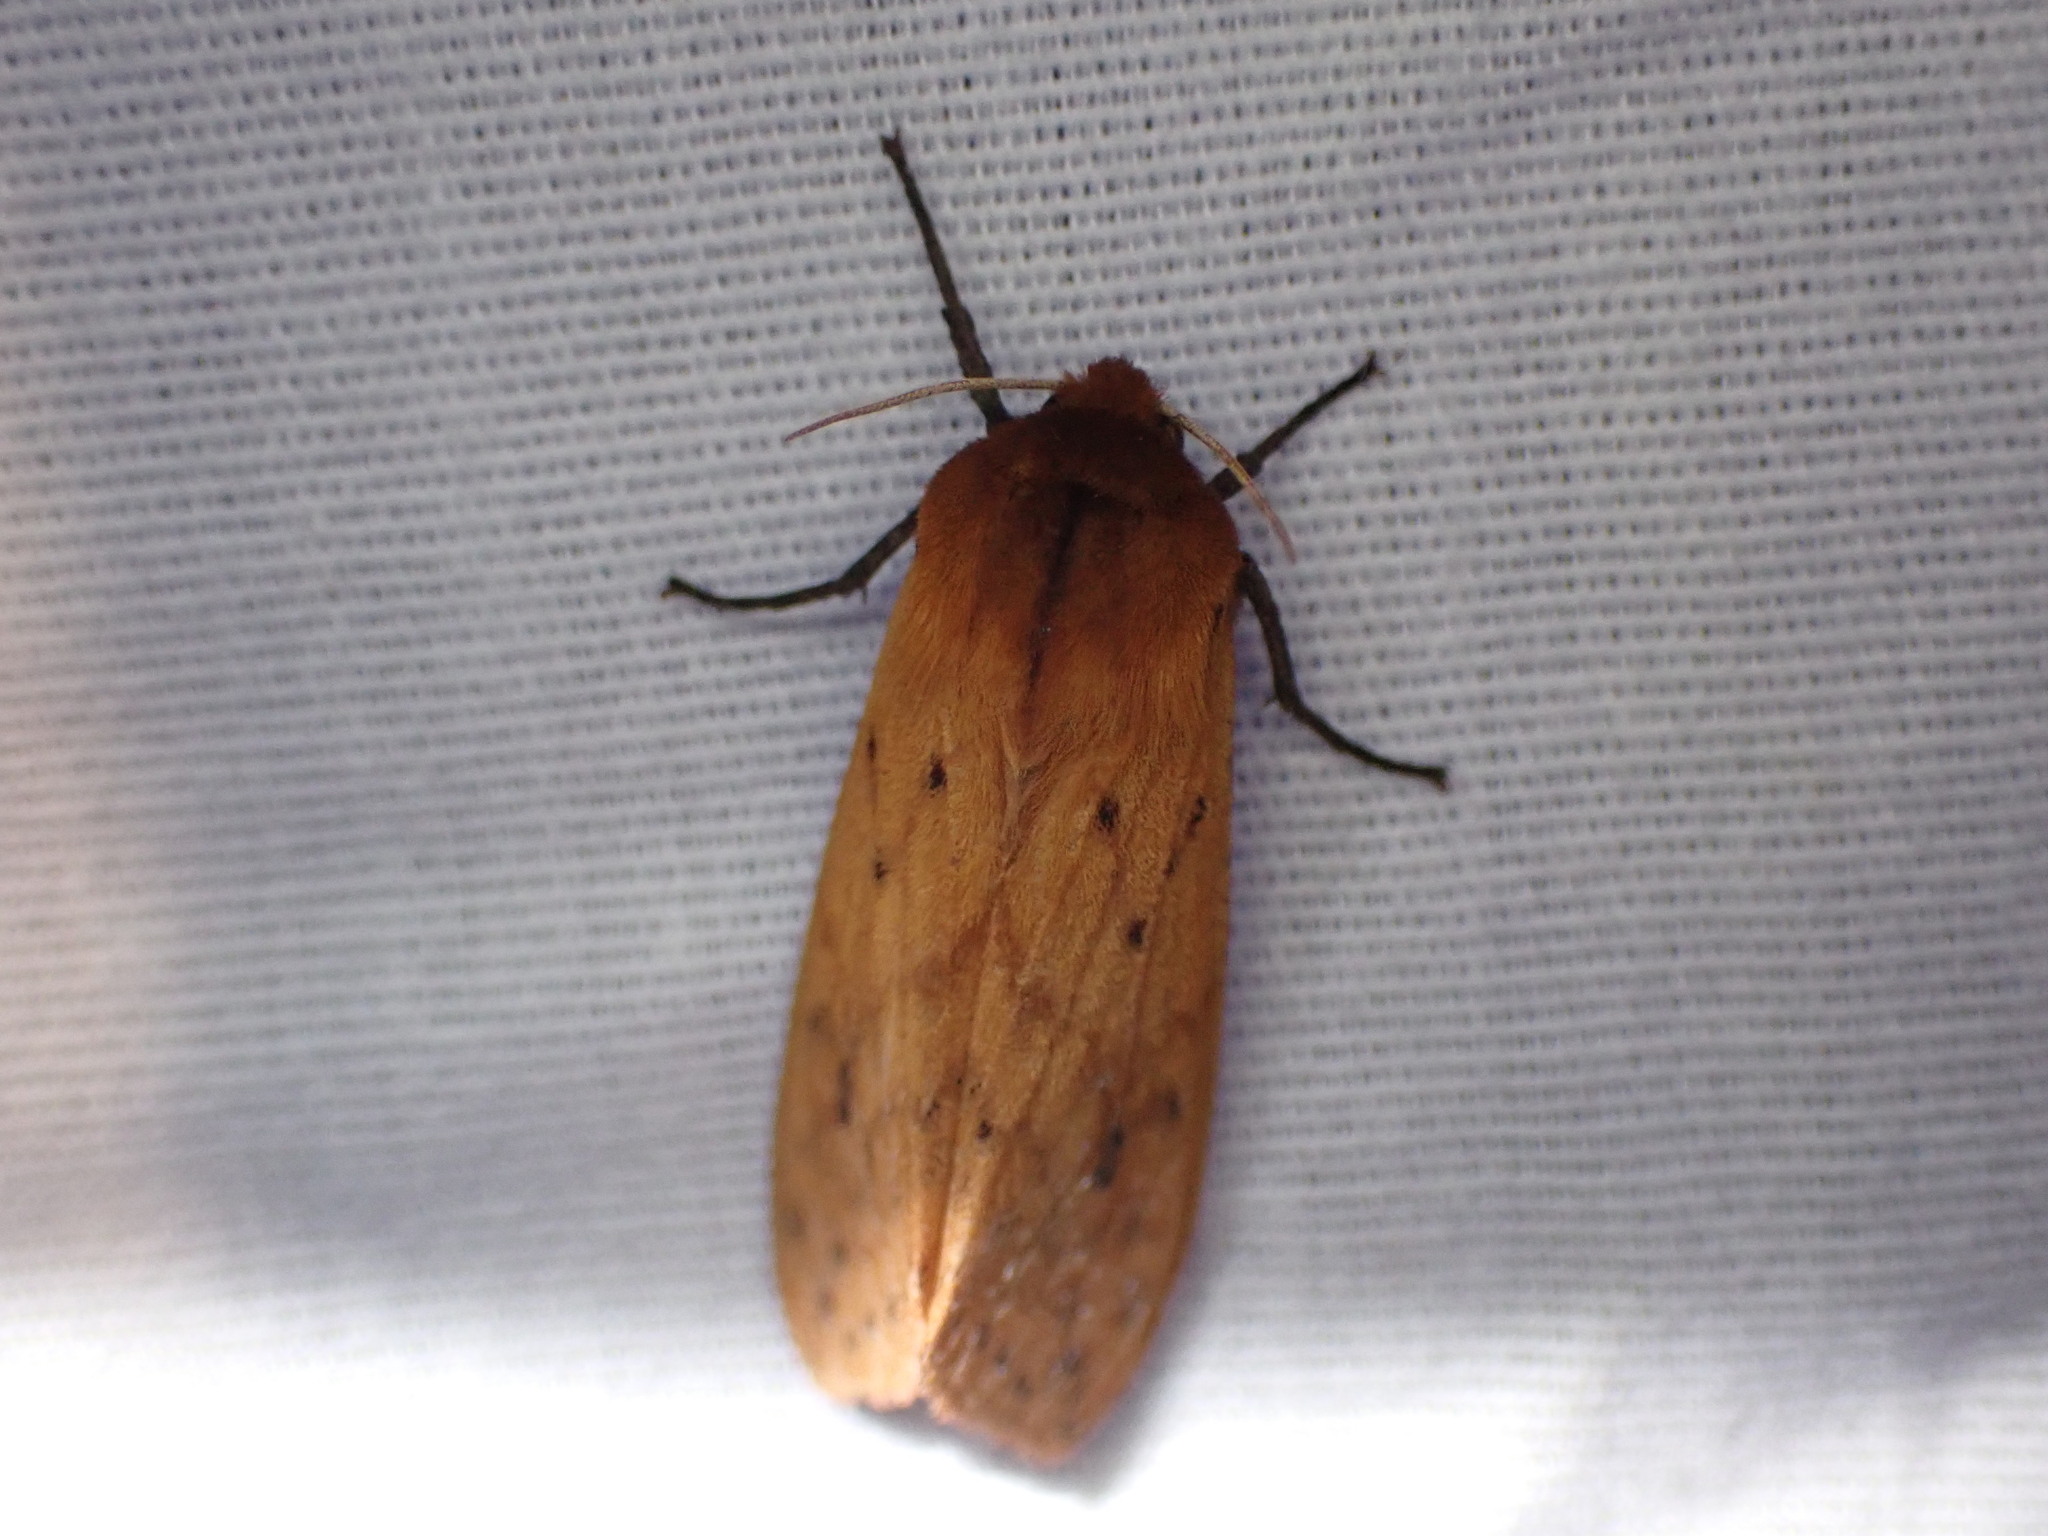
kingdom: Animalia
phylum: Arthropoda
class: Insecta
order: Lepidoptera
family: Erebidae
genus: Pyrrharctia
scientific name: Pyrrharctia isabella
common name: Isabella tiger moth
